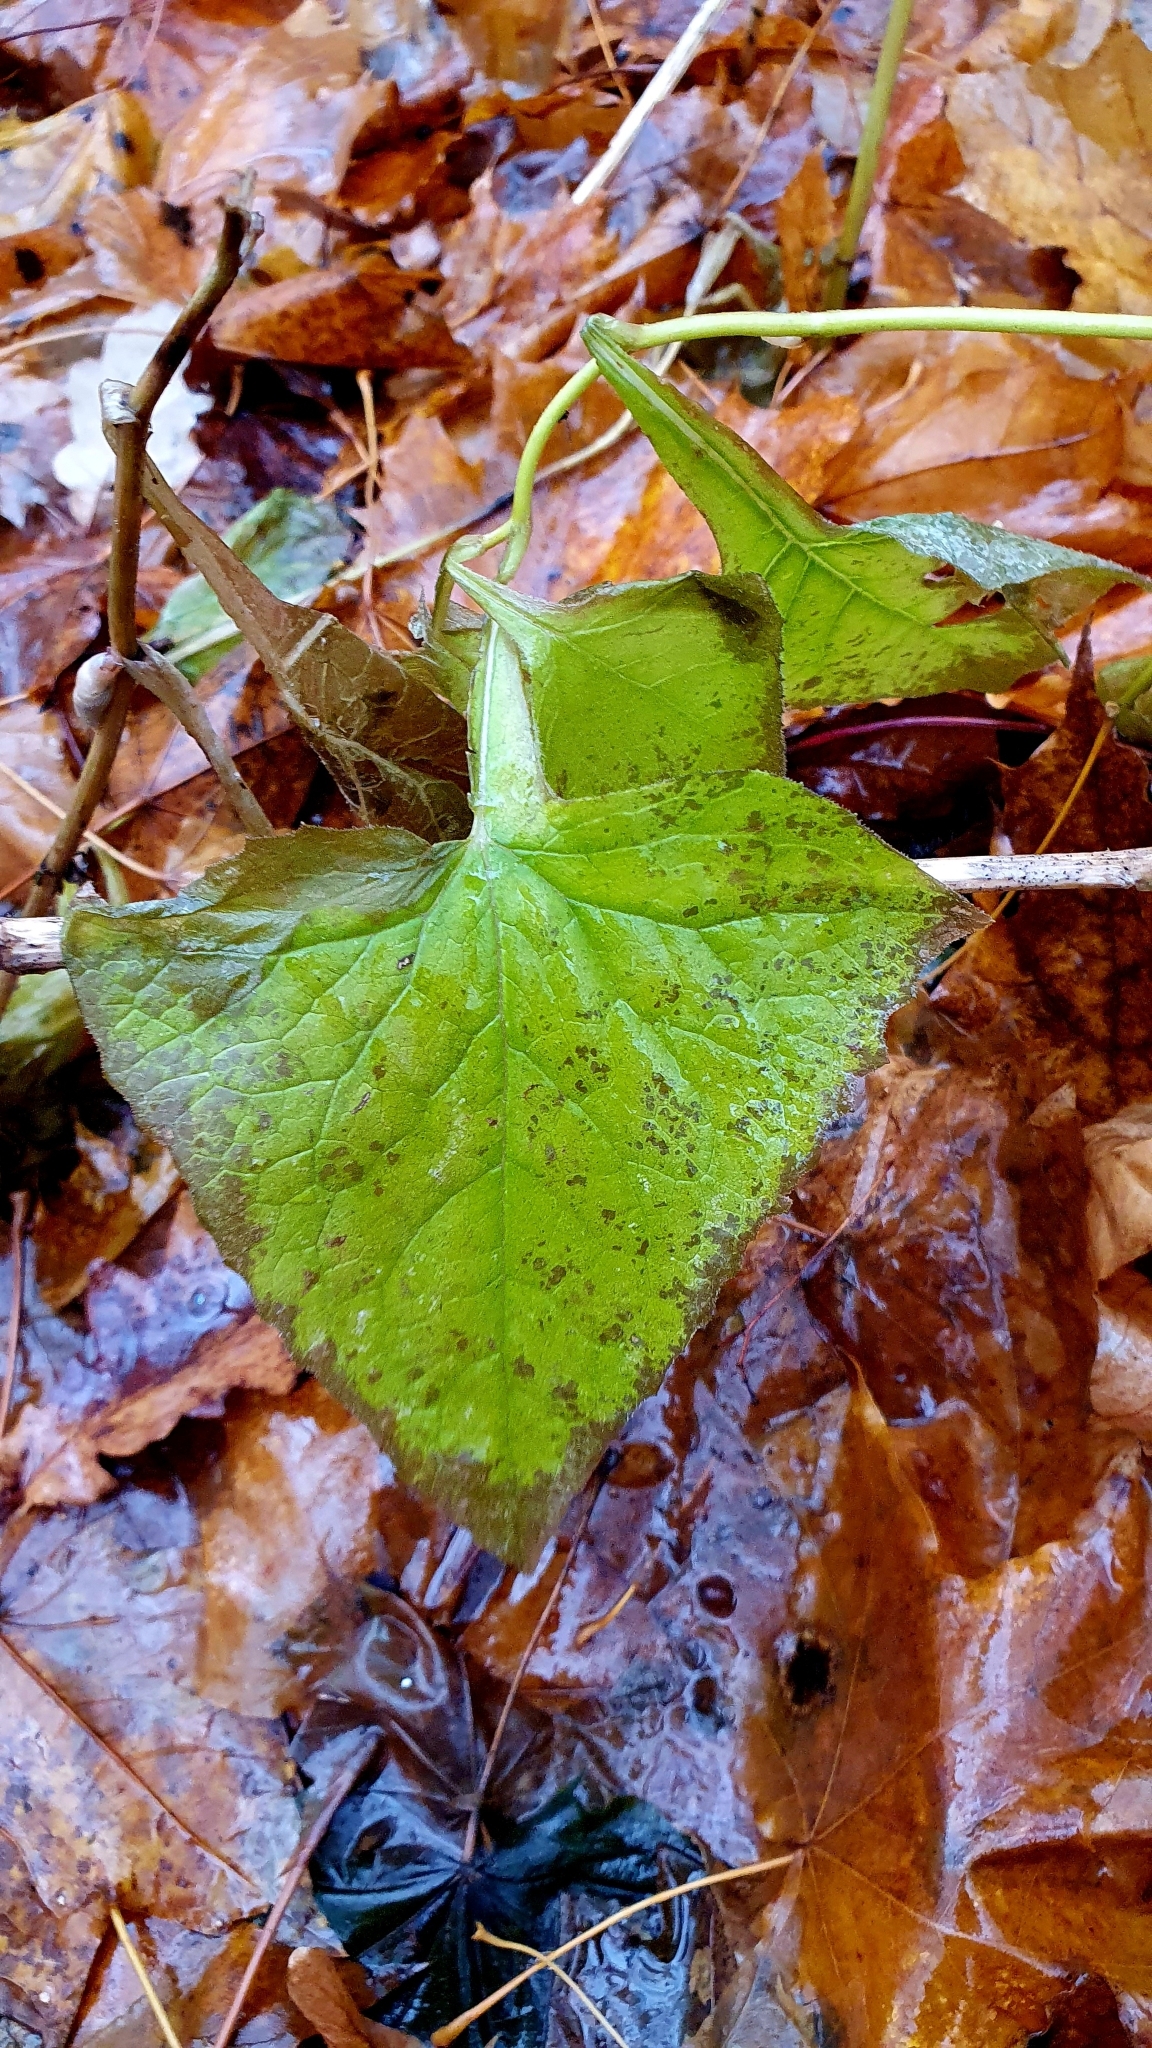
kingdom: Plantae
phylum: Tracheophyta
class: Magnoliopsida
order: Asterales
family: Asteraceae
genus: Parasenecio
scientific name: Parasenecio hastatus
